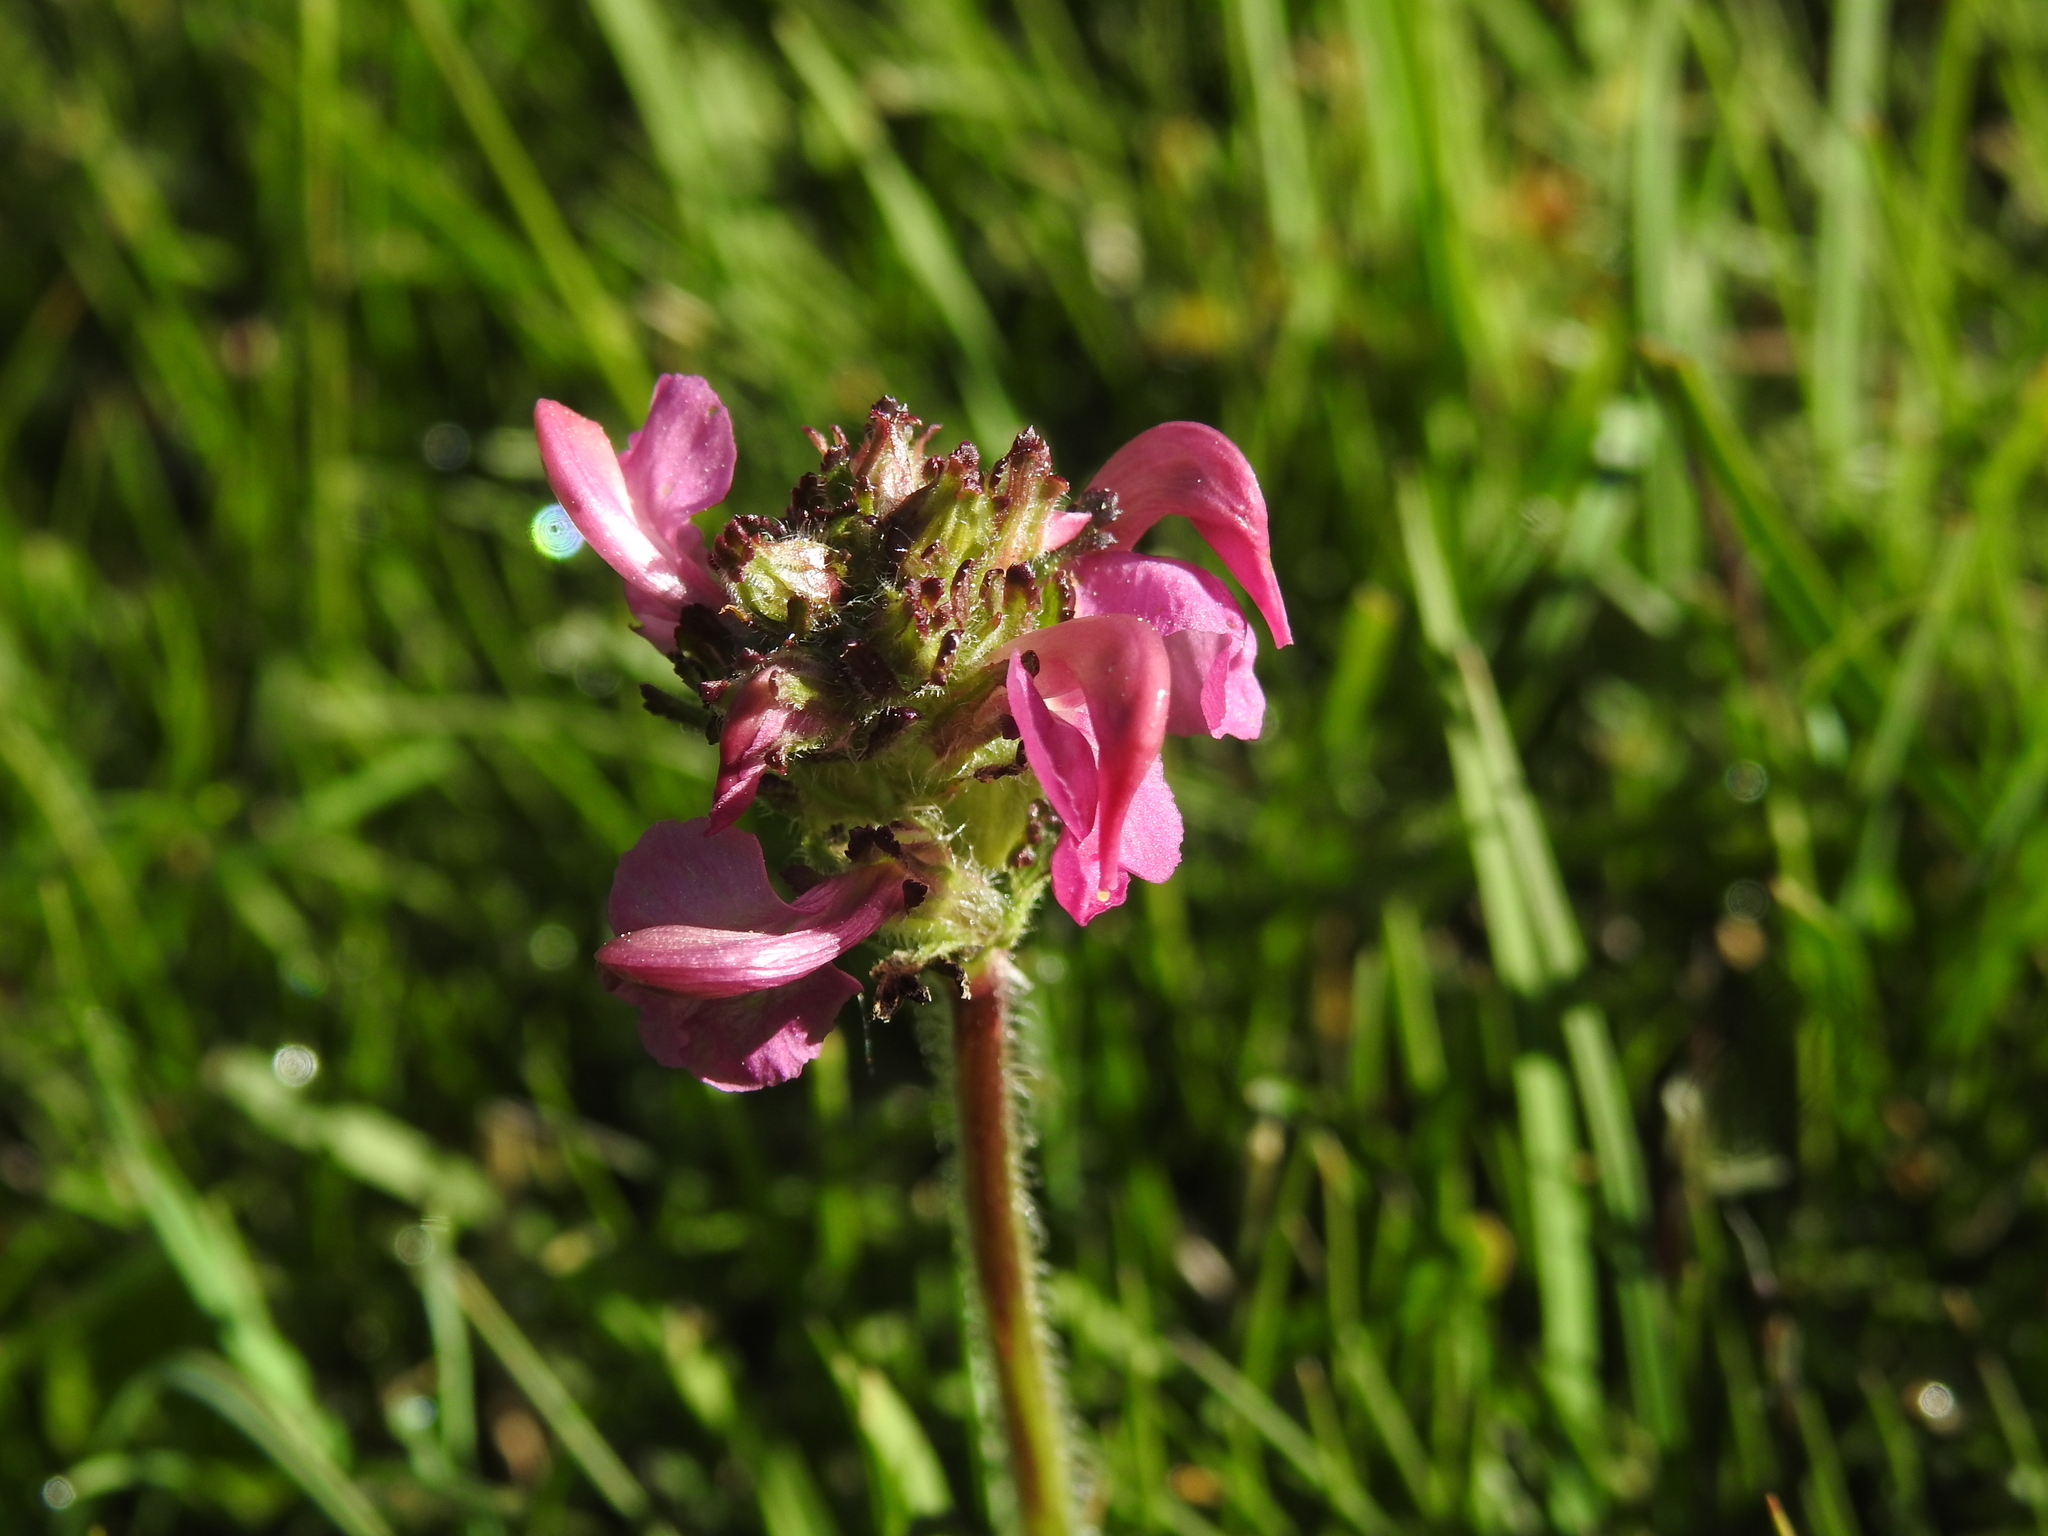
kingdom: Plantae
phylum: Tracheophyta
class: Magnoliopsida
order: Lamiales
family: Orobanchaceae
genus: Pedicularis
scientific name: Pedicularis pyrenaica
